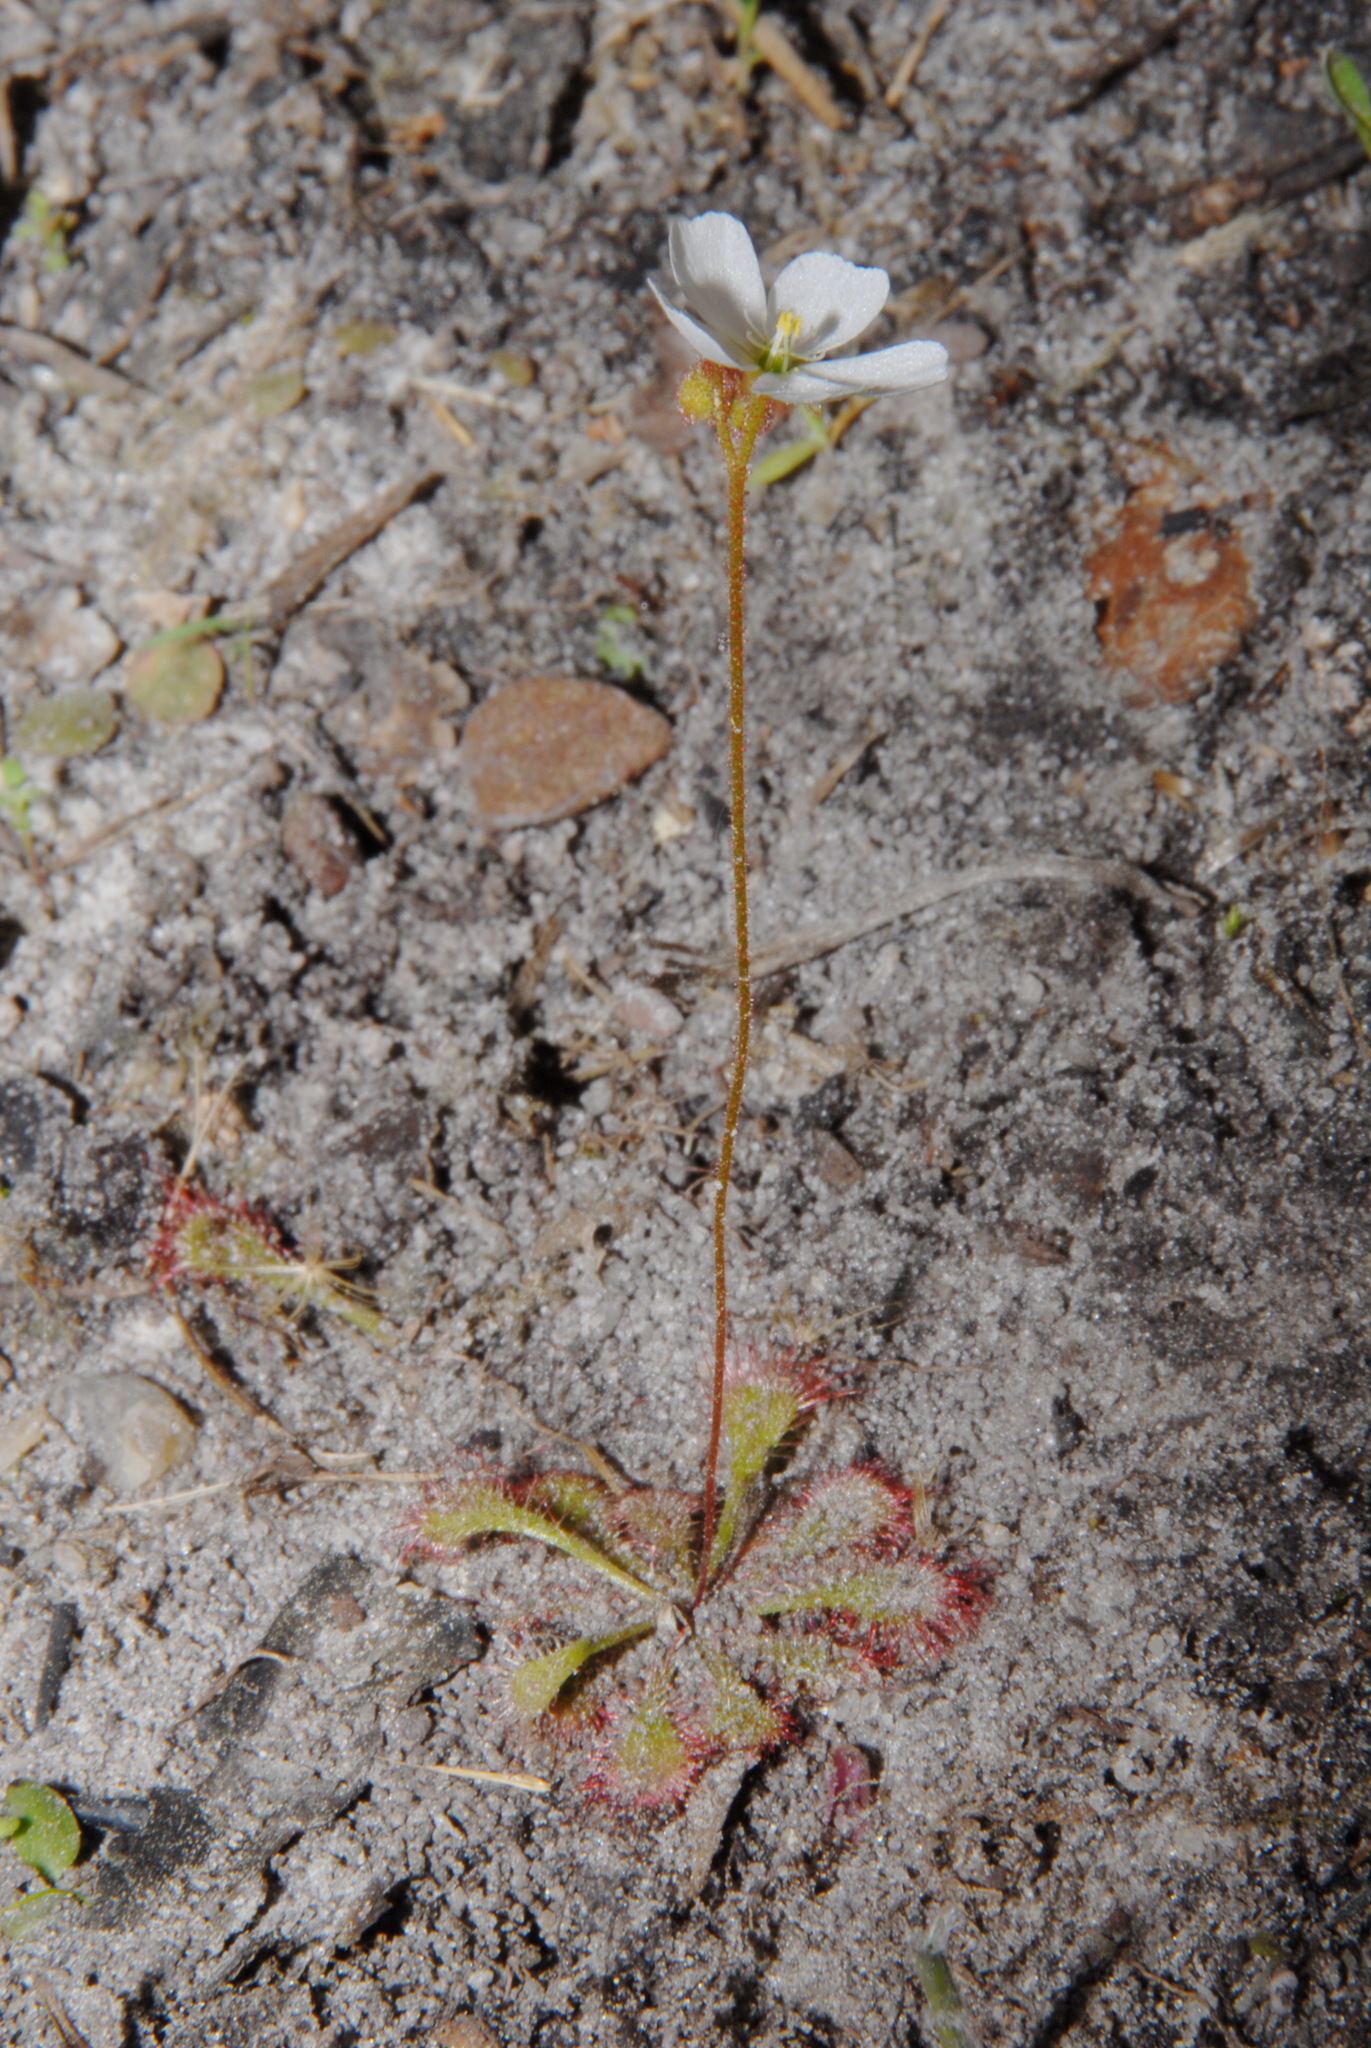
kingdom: Plantae
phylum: Tracheophyta
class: Magnoliopsida
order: Caryophyllales
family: Droseraceae
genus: Drosera
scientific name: Drosera brevifolia
